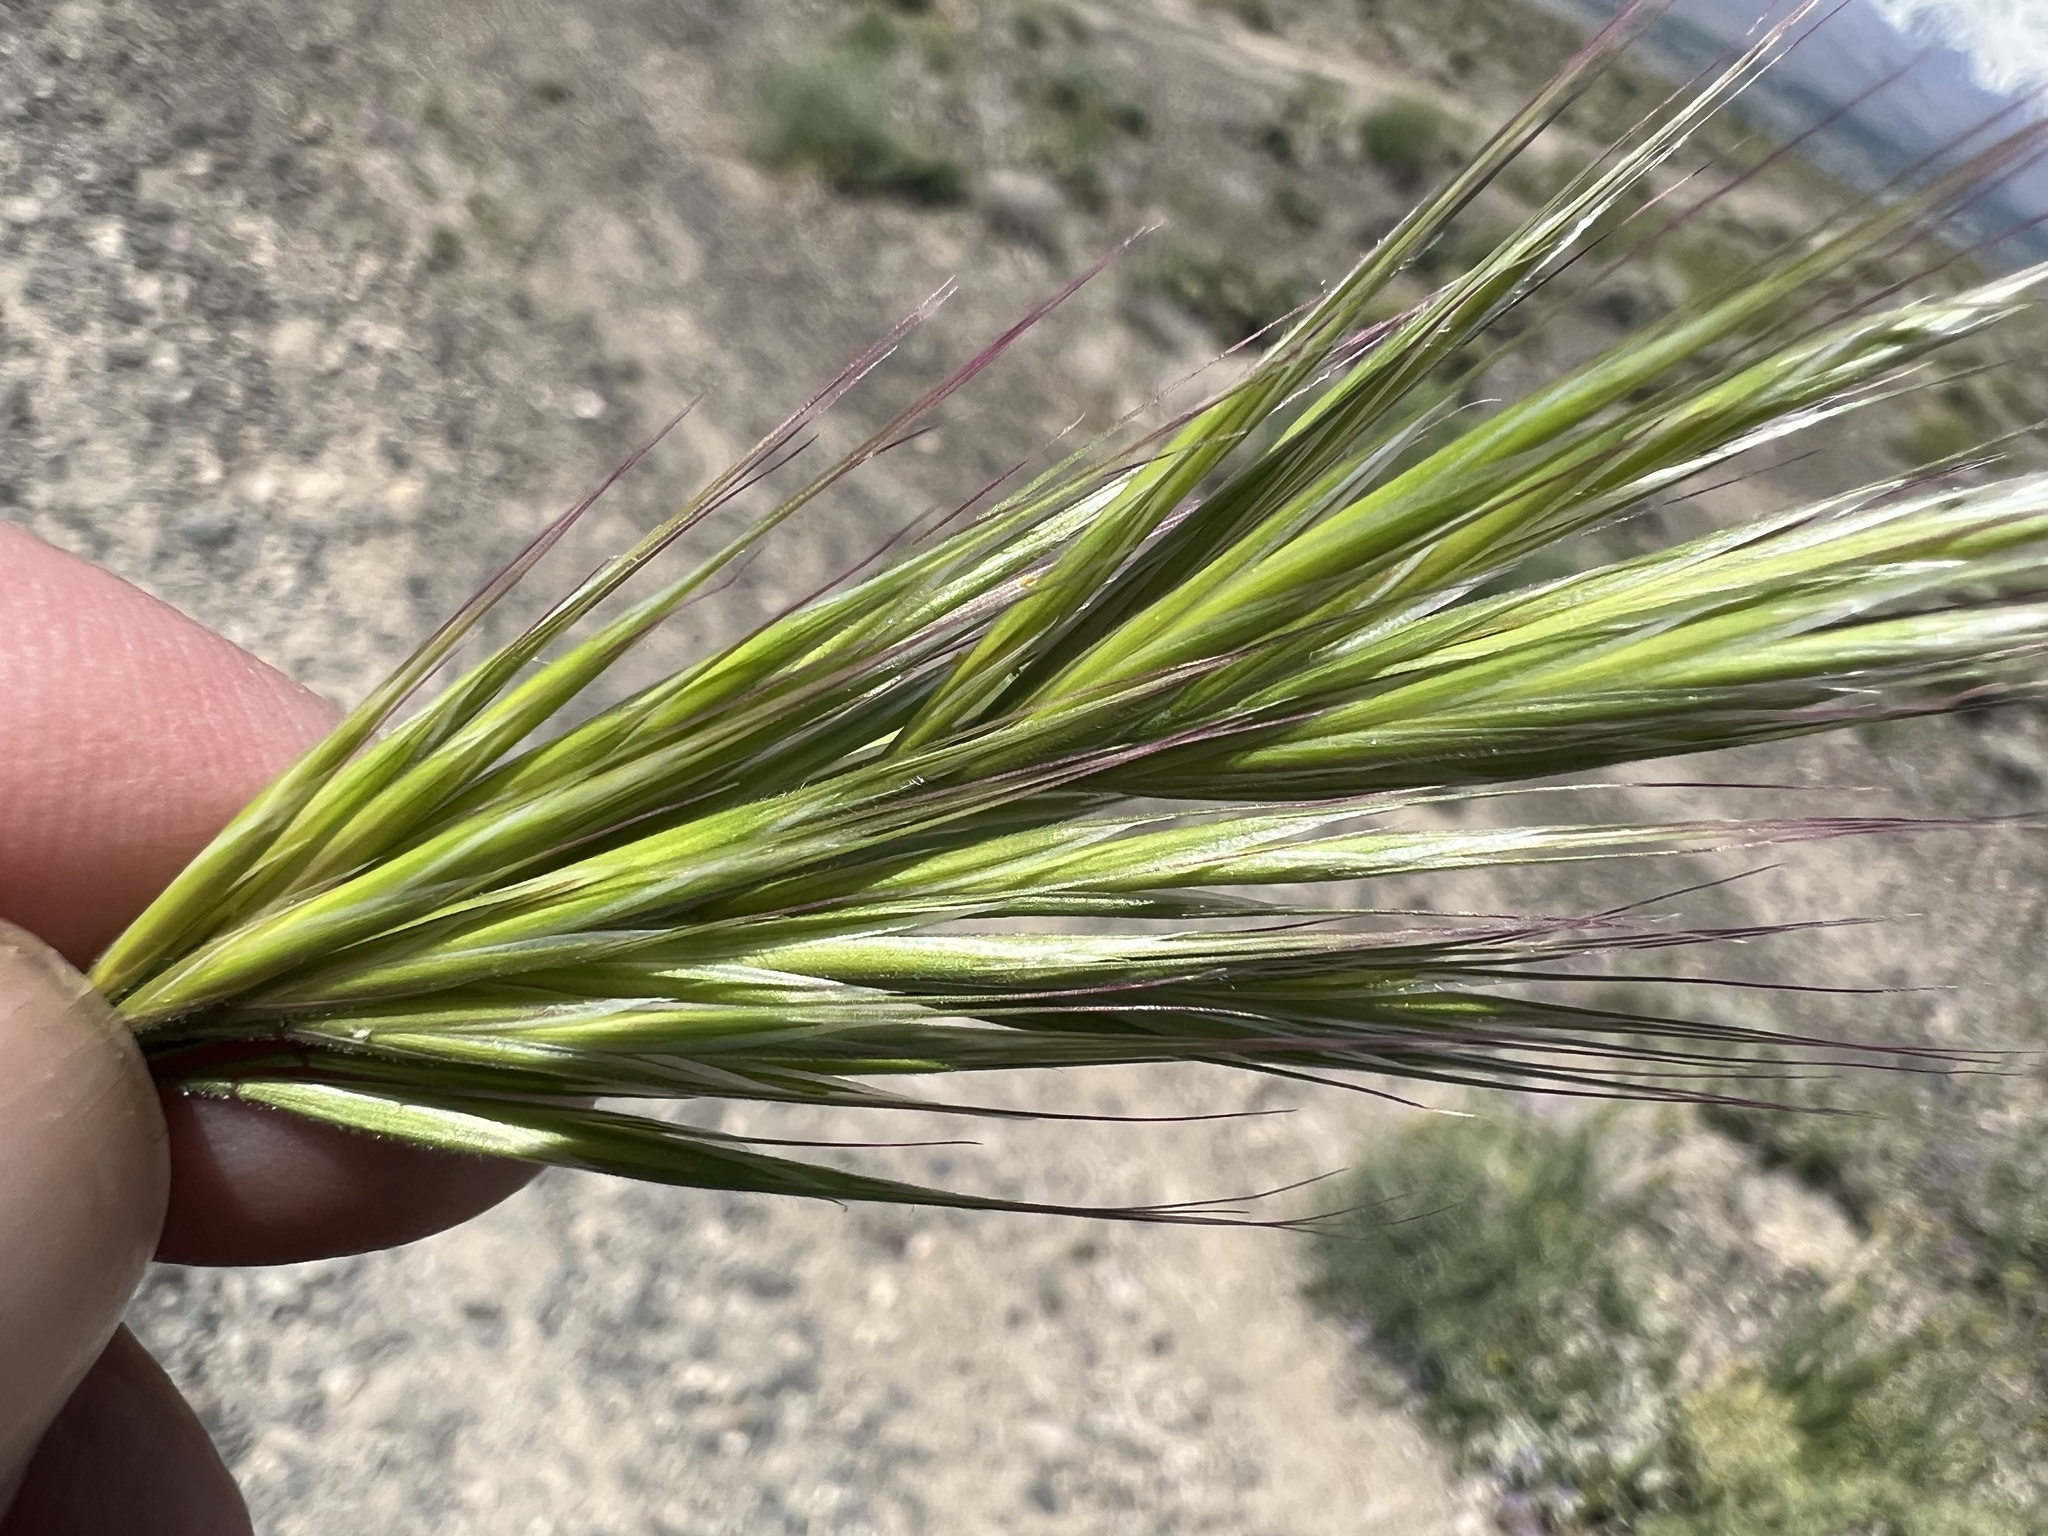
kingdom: Plantae
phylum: Tracheophyta
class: Liliopsida
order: Poales
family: Poaceae
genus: Bromus
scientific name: Bromus rubens
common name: Red brome
